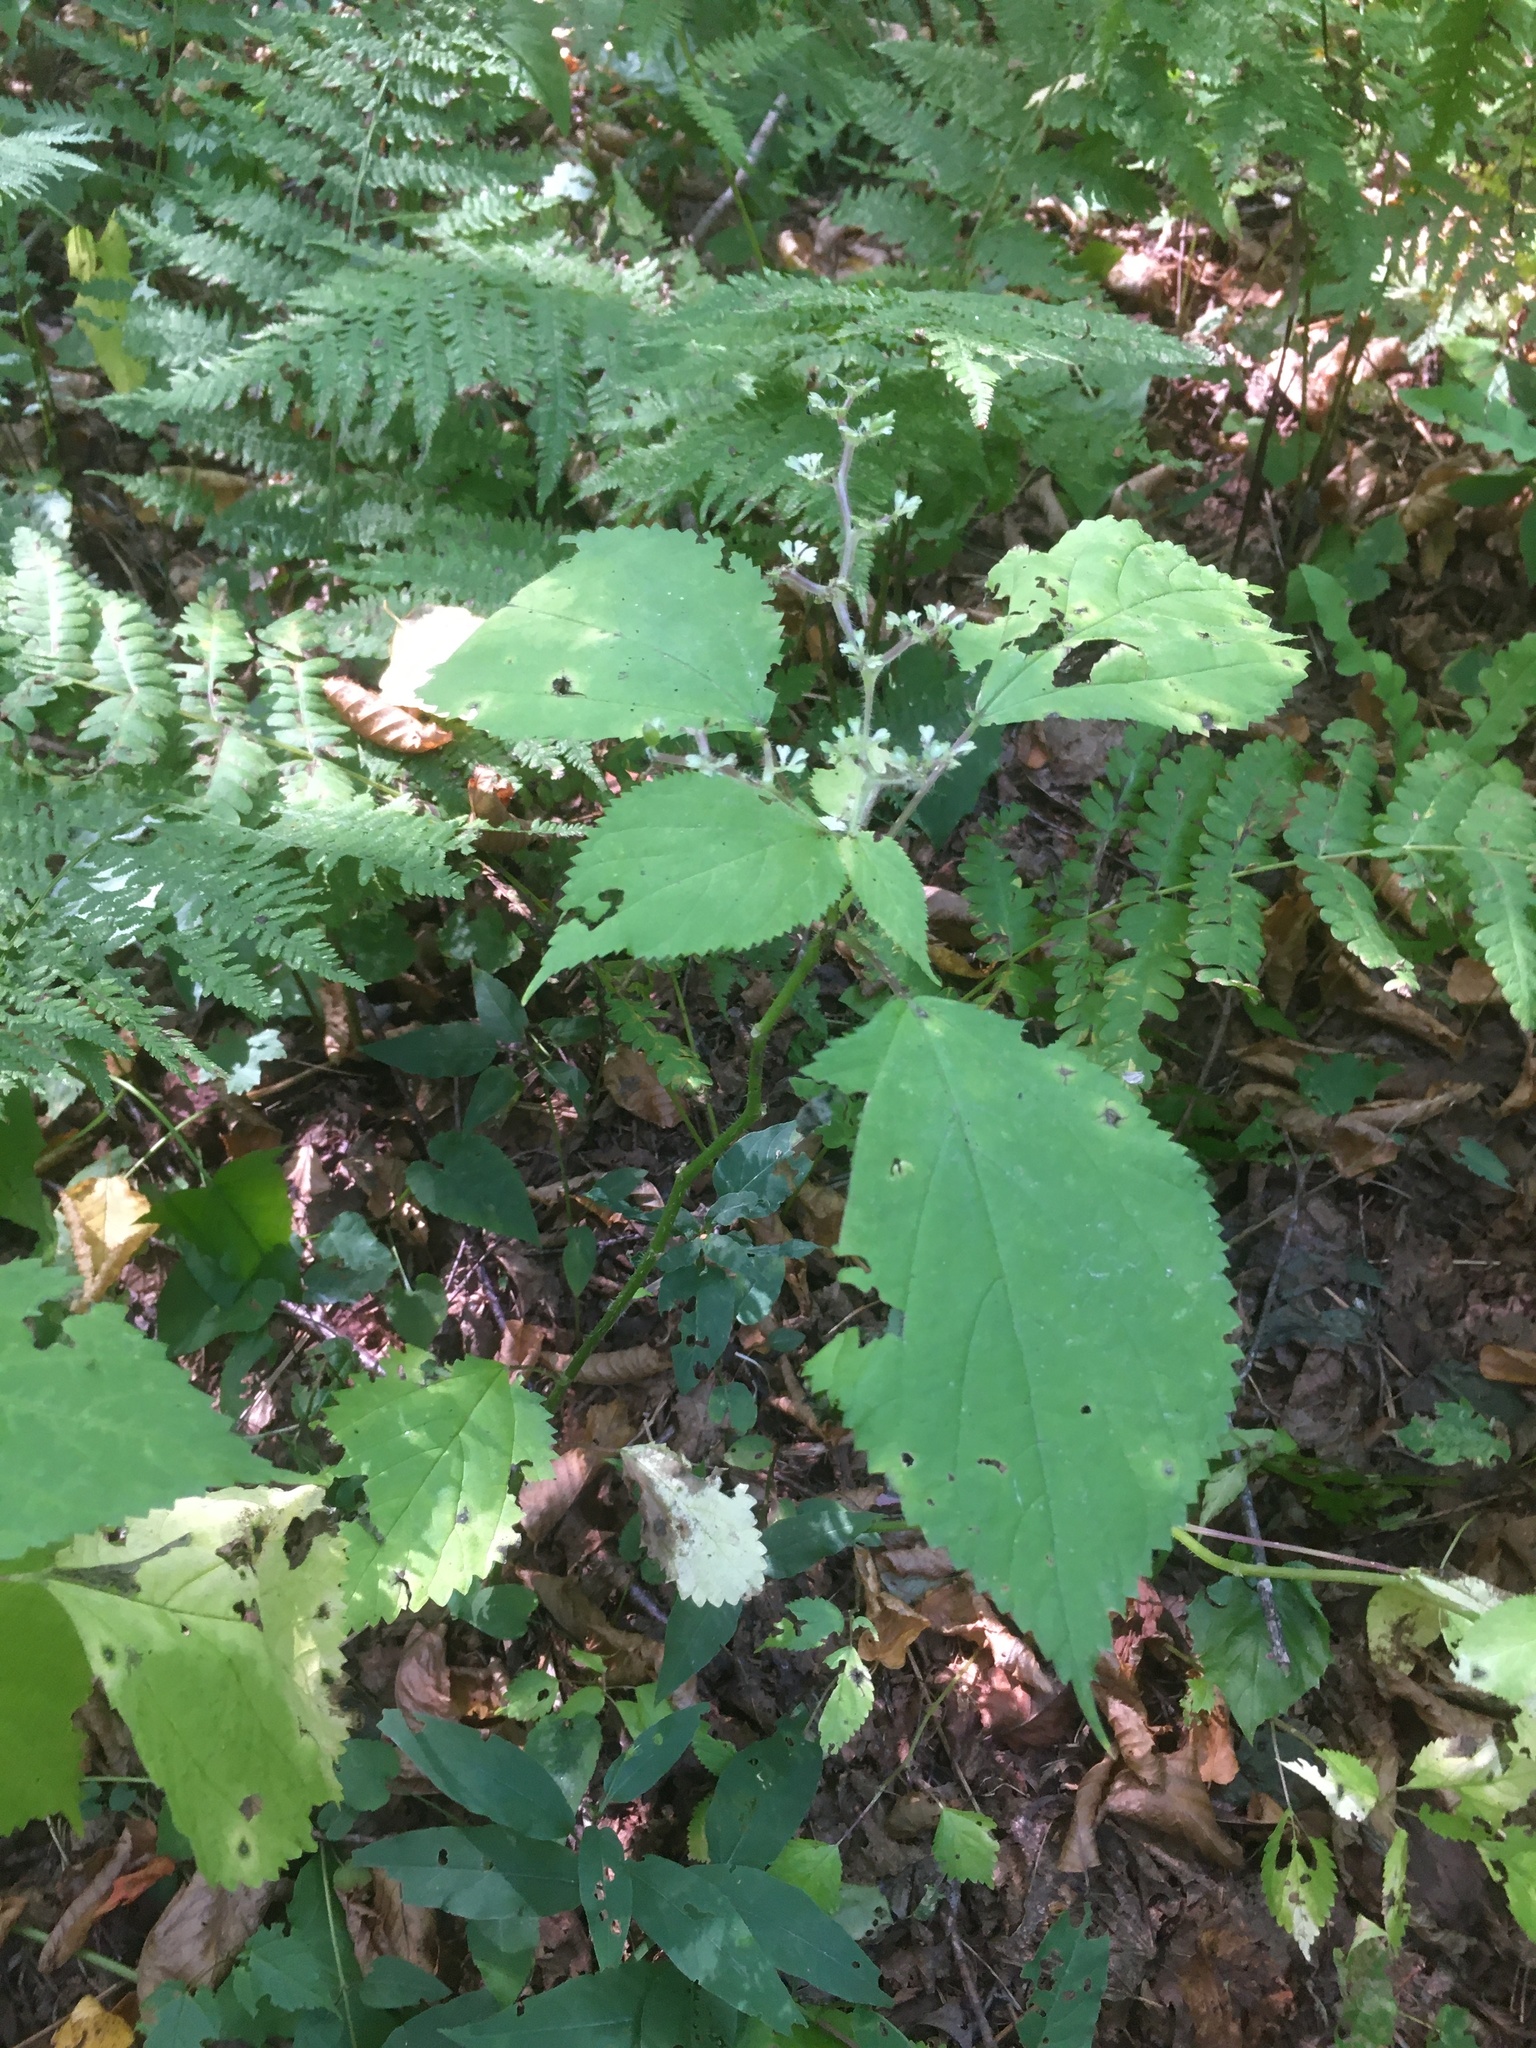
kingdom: Plantae
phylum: Tracheophyta
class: Magnoliopsida
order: Rosales
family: Urticaceae
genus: Laportea
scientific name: Laportea canadensis
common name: Canada nettle
